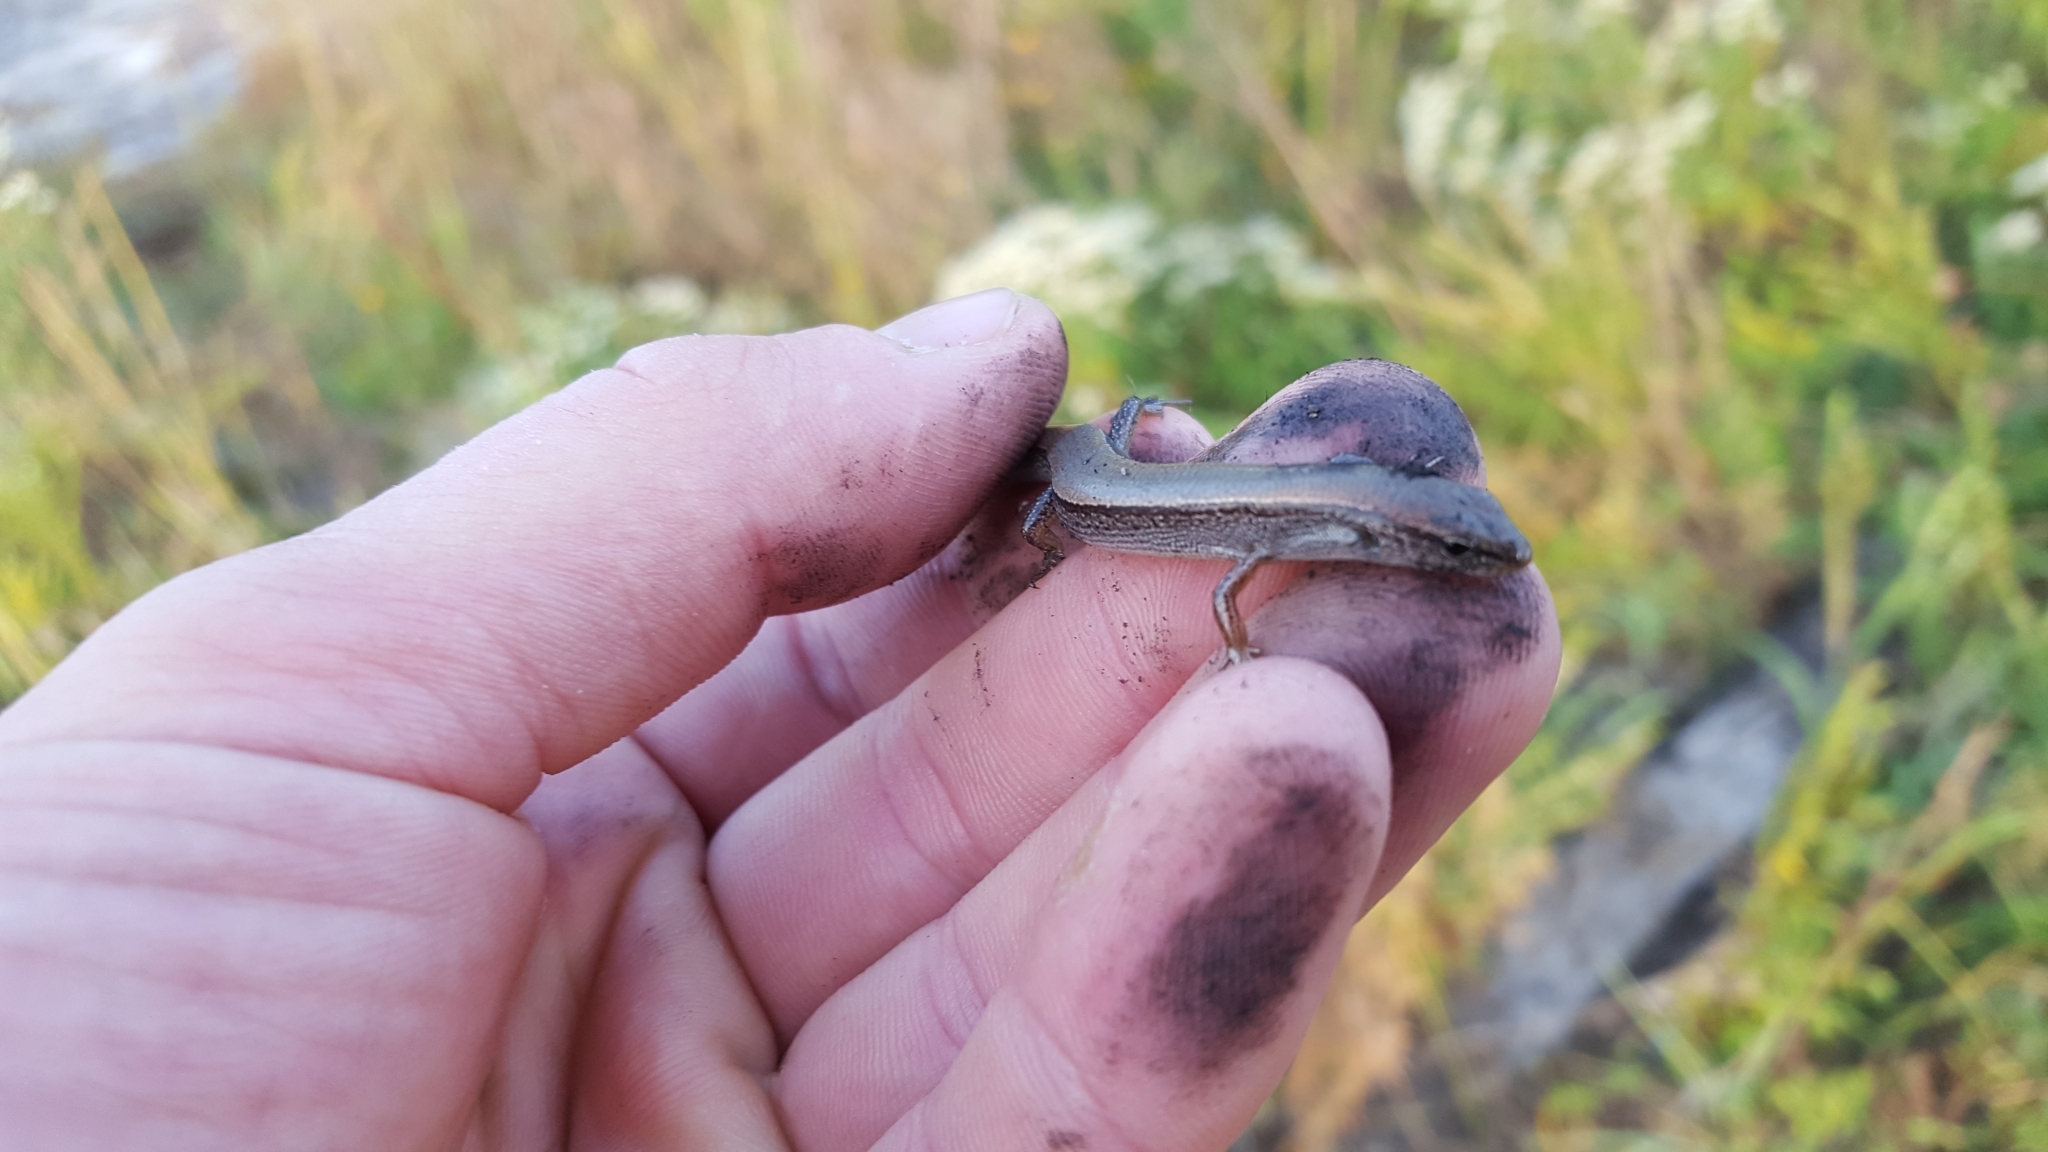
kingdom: Animalia
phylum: Chordata
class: Squamata
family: Scincidae
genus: Scincella
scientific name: Scincella lateralis
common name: Ground skink
